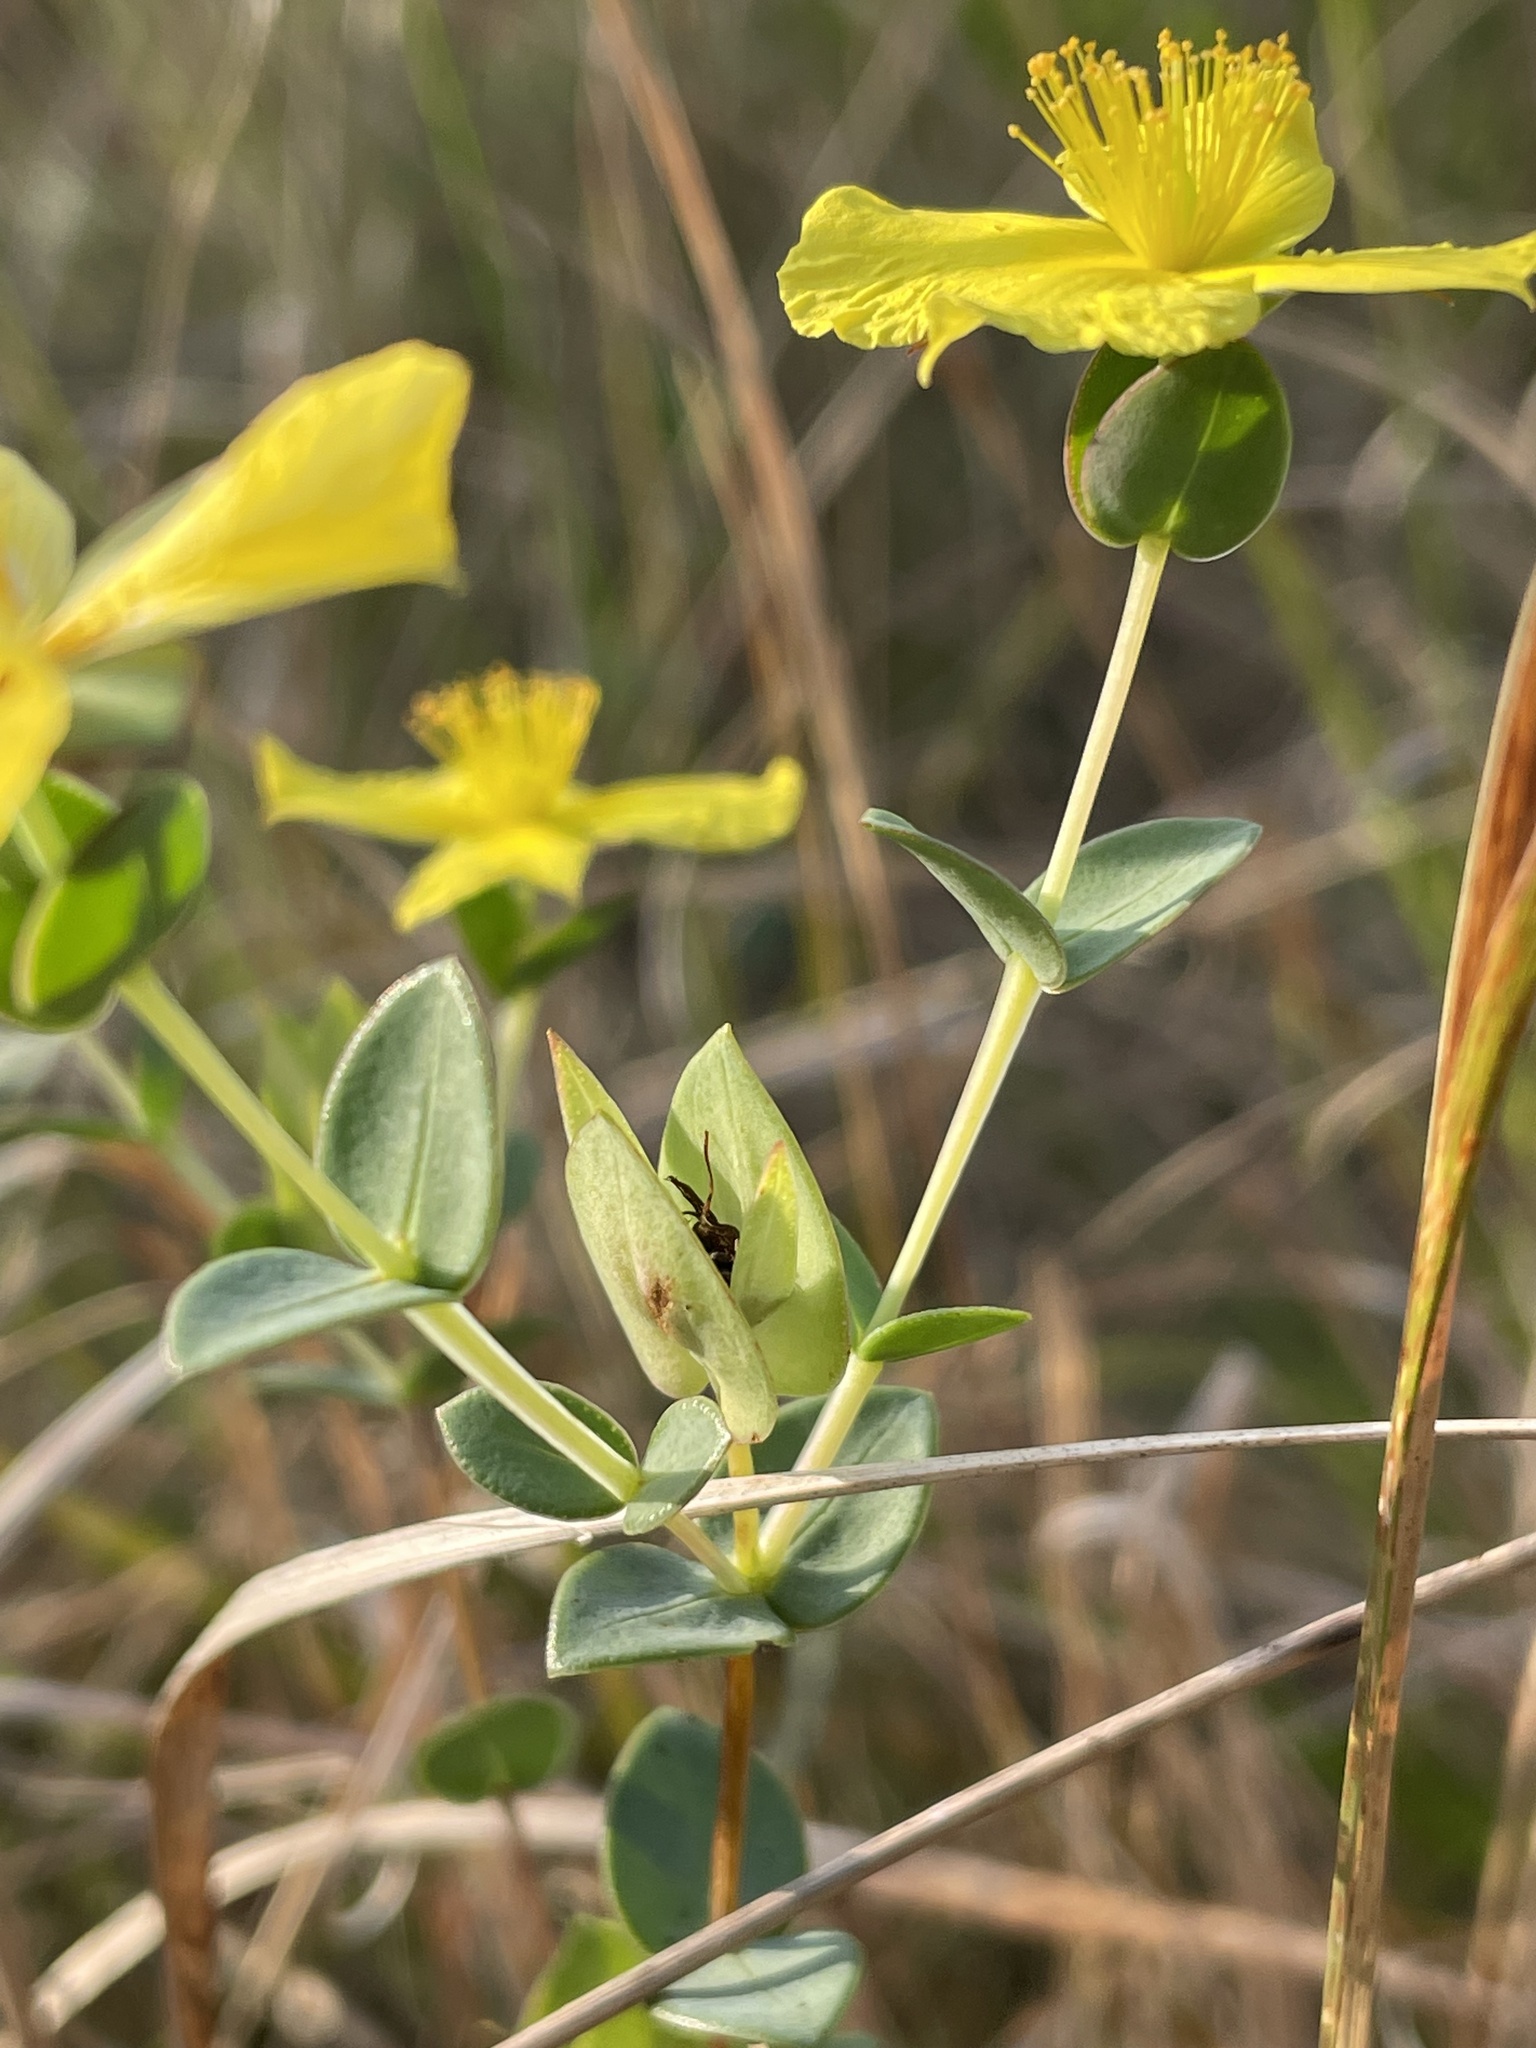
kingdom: Plantae
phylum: Tracheophyta
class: Magnoliopsida
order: Malpighiales
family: Hypericaceae
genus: Hypericum
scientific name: Hypericum tetrapetalum
